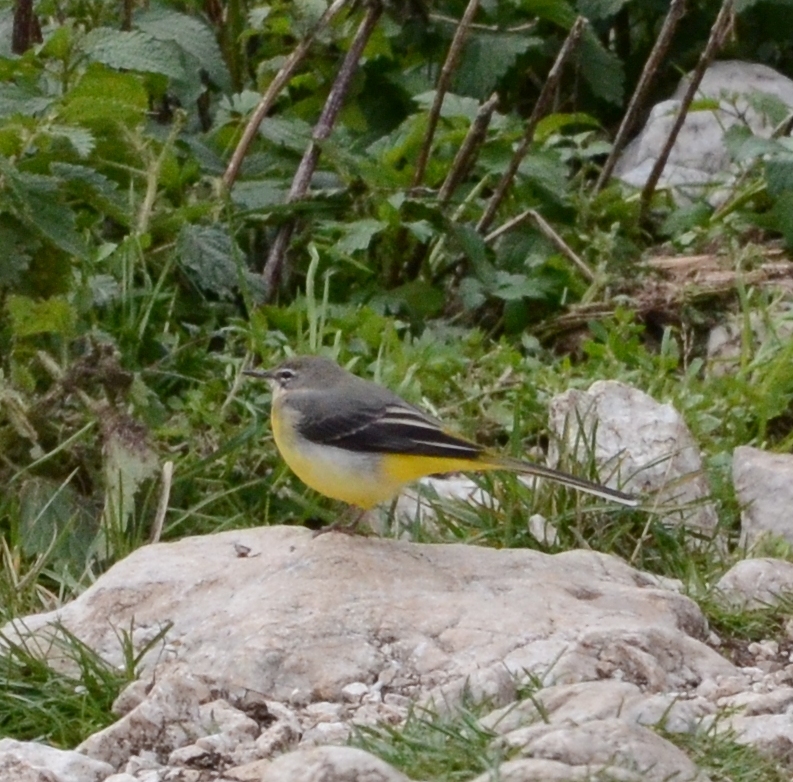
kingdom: Animalia
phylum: Chordata
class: Aves
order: Passeriformes
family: Motacillidae
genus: Motacilla
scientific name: Motacilla cinerea
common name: Grey wagtail
